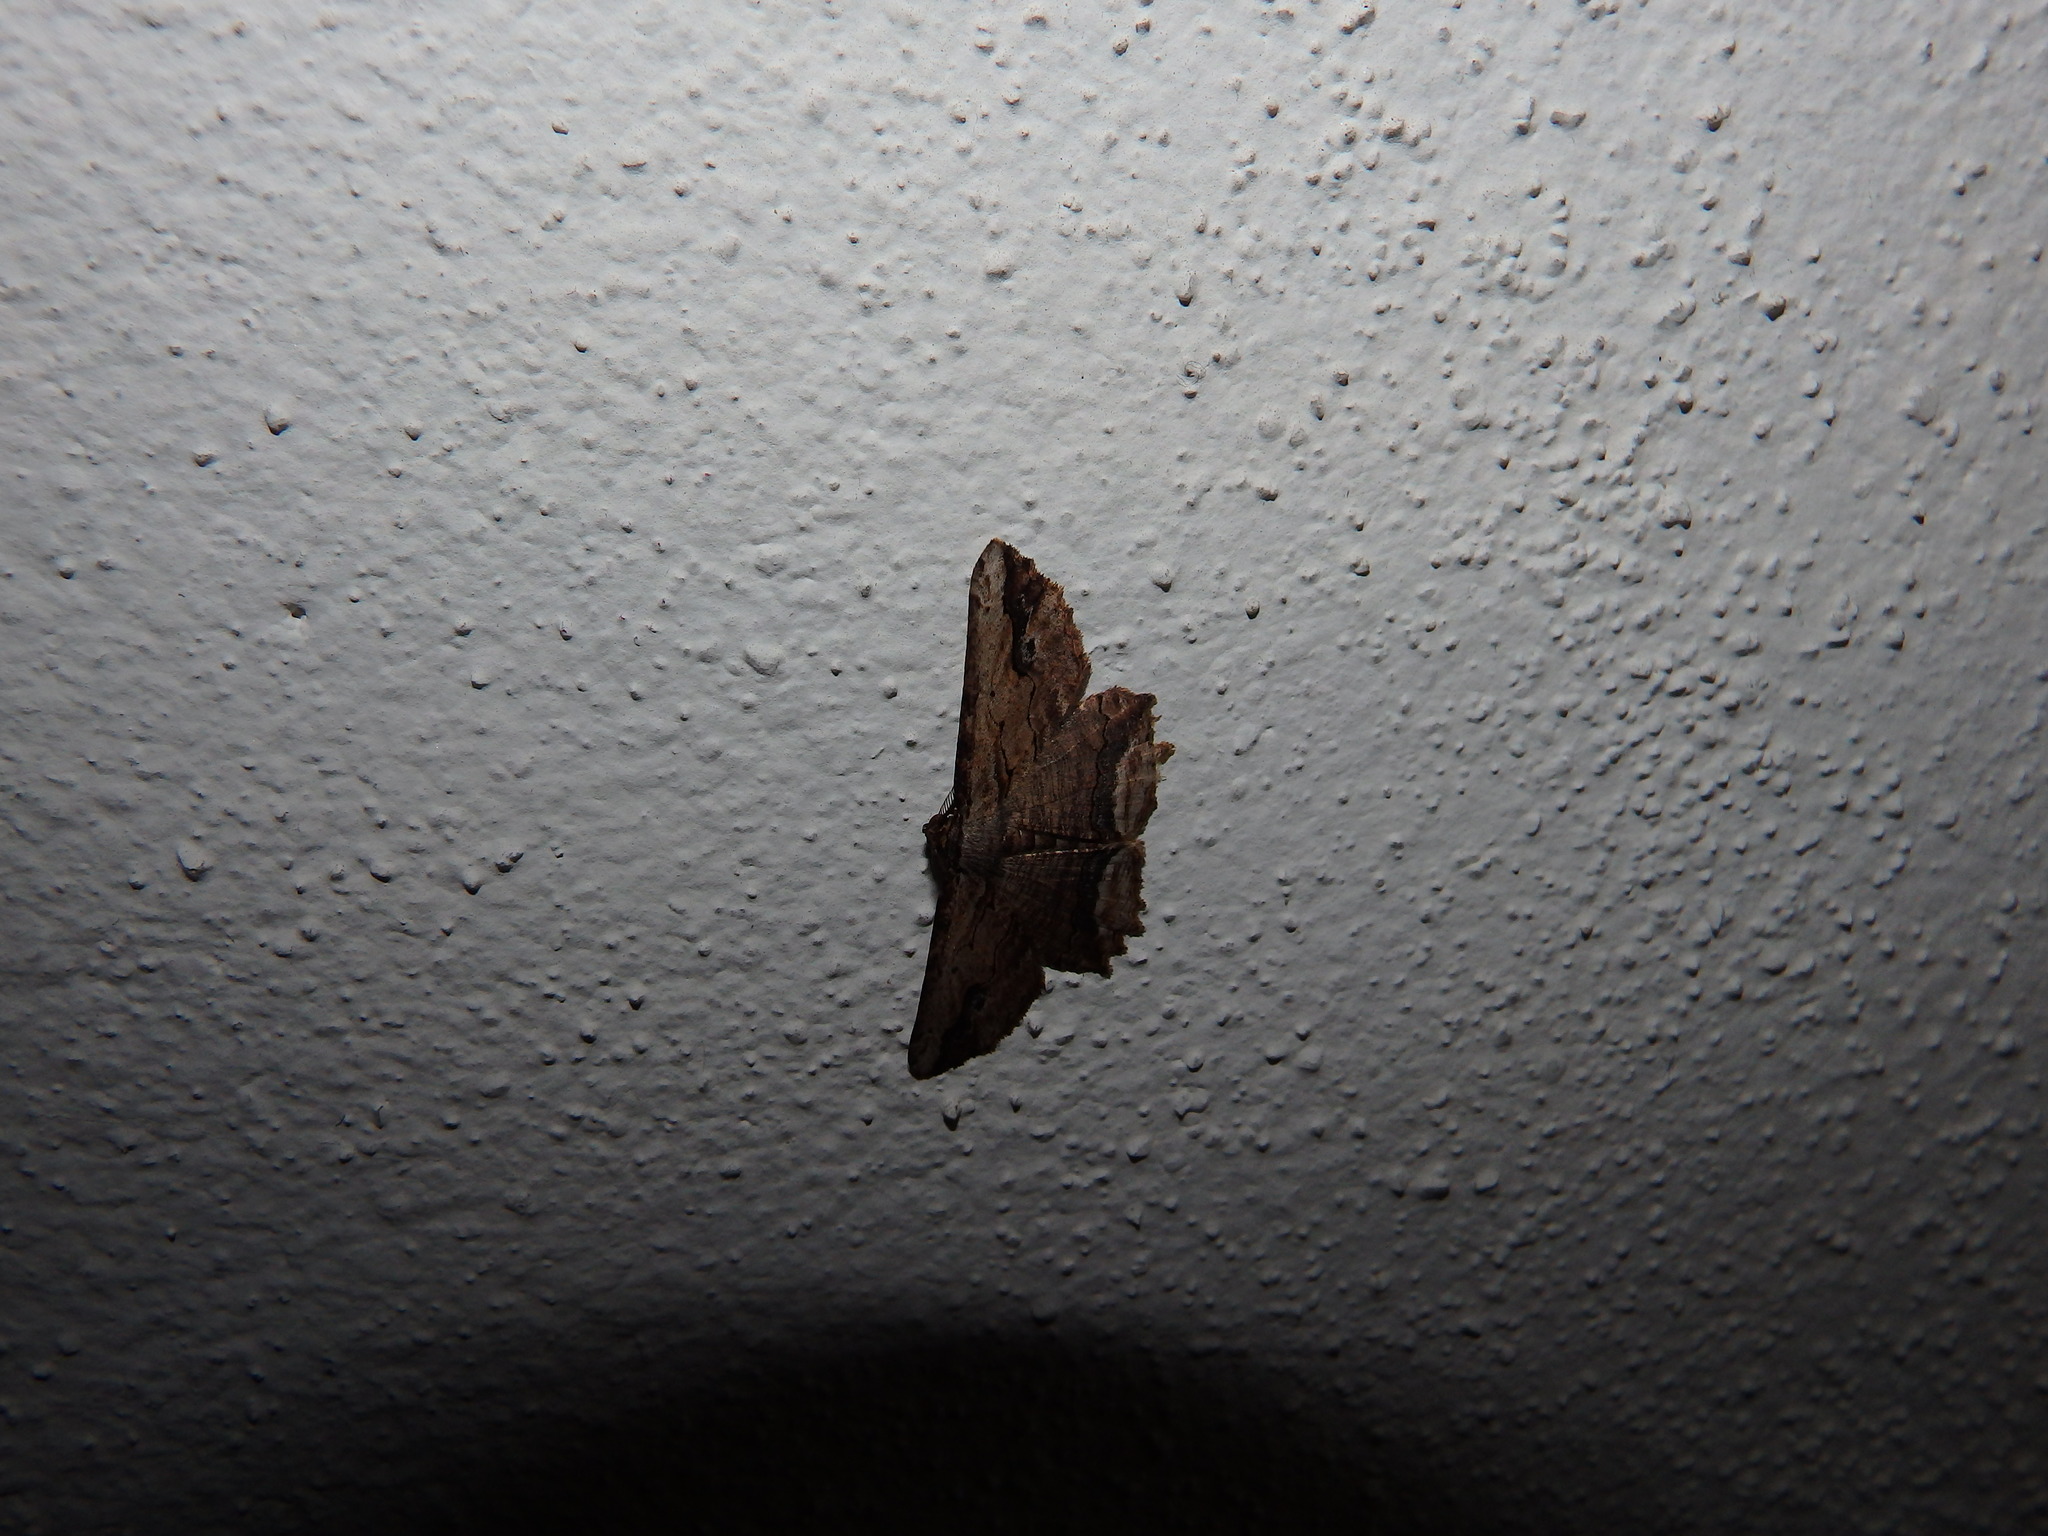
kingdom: Animalia
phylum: Arthropoda
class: Insecta
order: Lepidoptera
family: Geometridae
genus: Menophra
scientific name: Menophra abruptaria
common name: Waved umber
